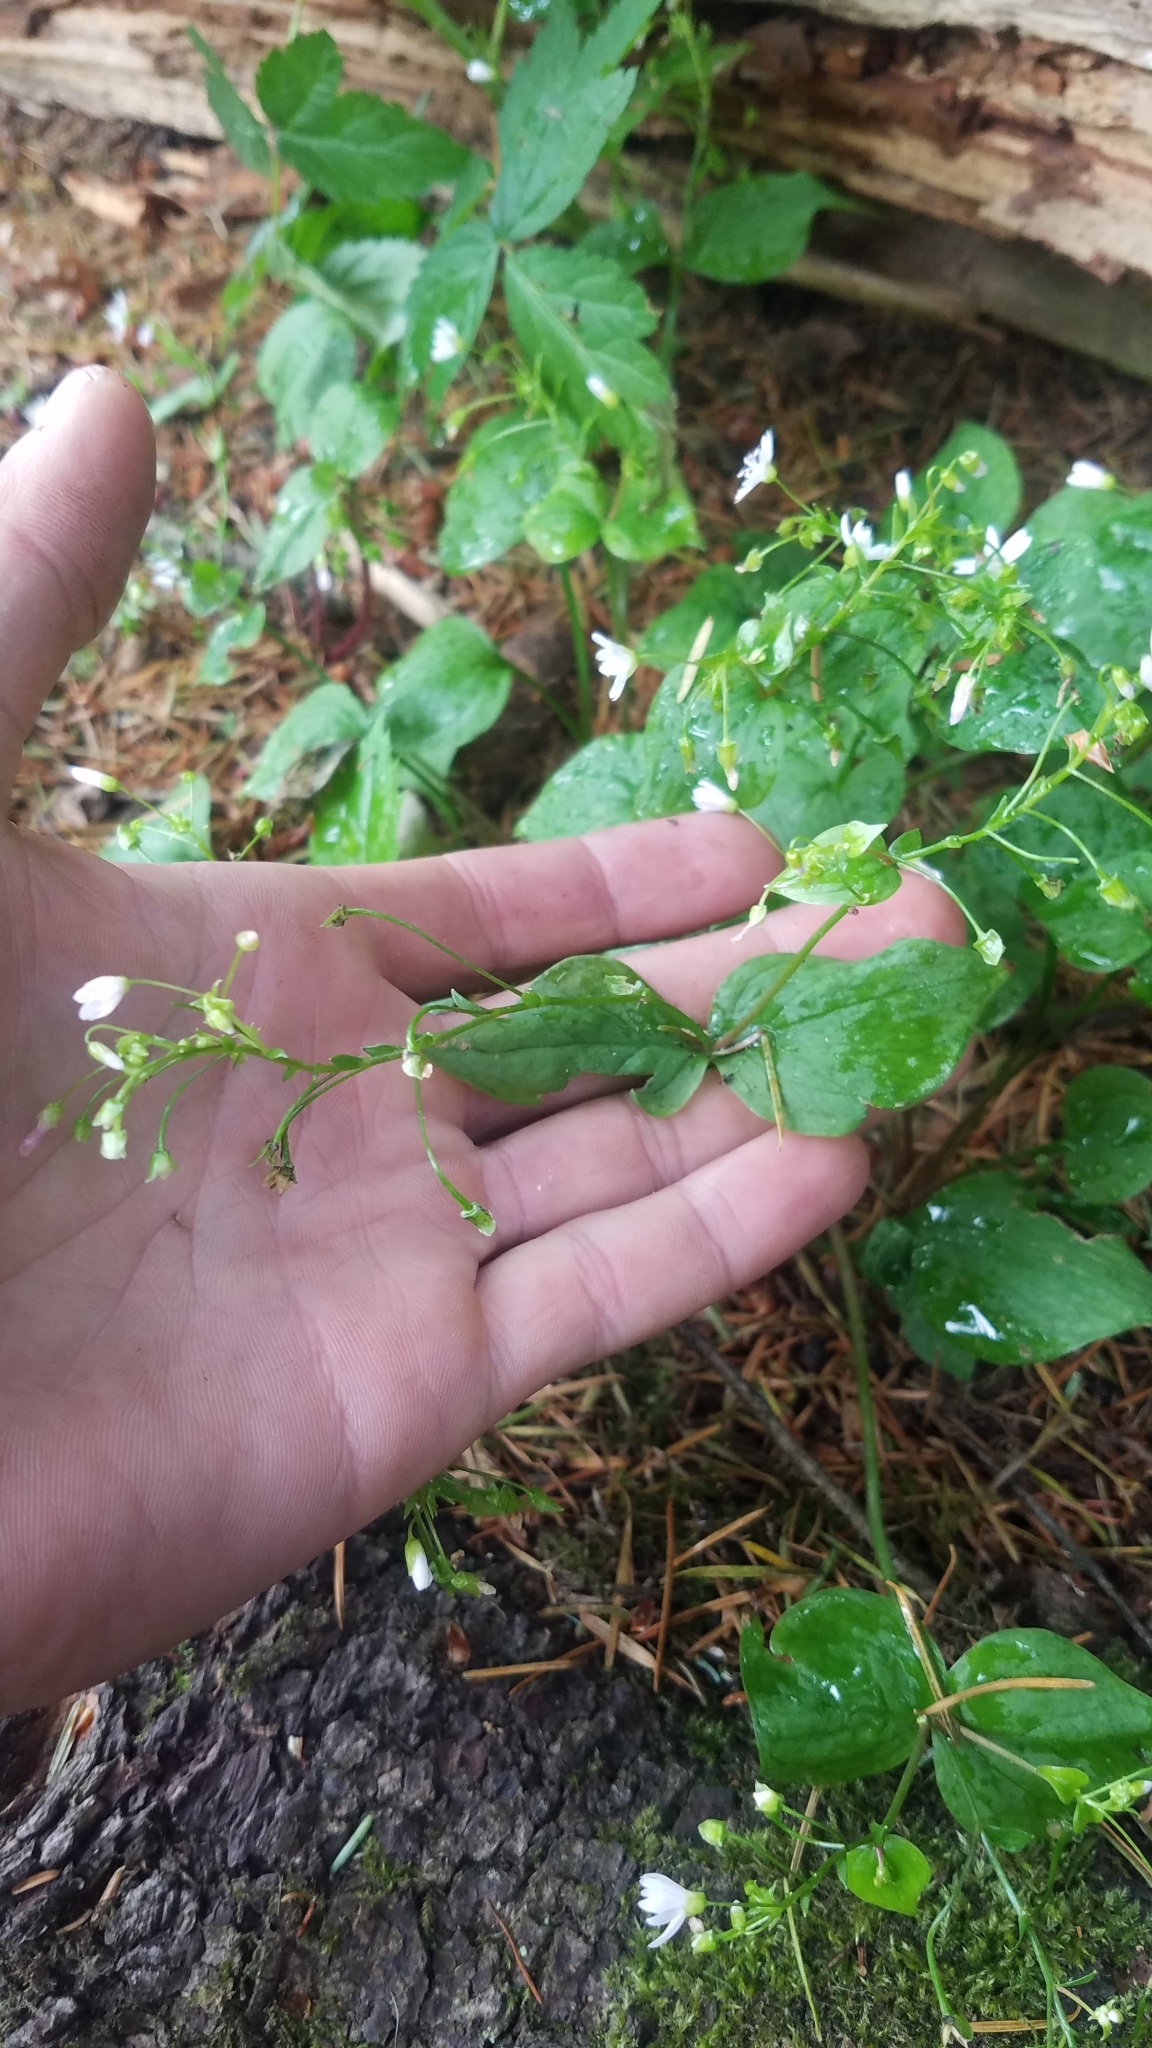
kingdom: Plantae
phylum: Tracheophyta
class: Magnoliopsida
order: Caryophyllales
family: Montiaceae
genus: Claytonia
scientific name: Claytonia sibirica
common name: Pink purslane
